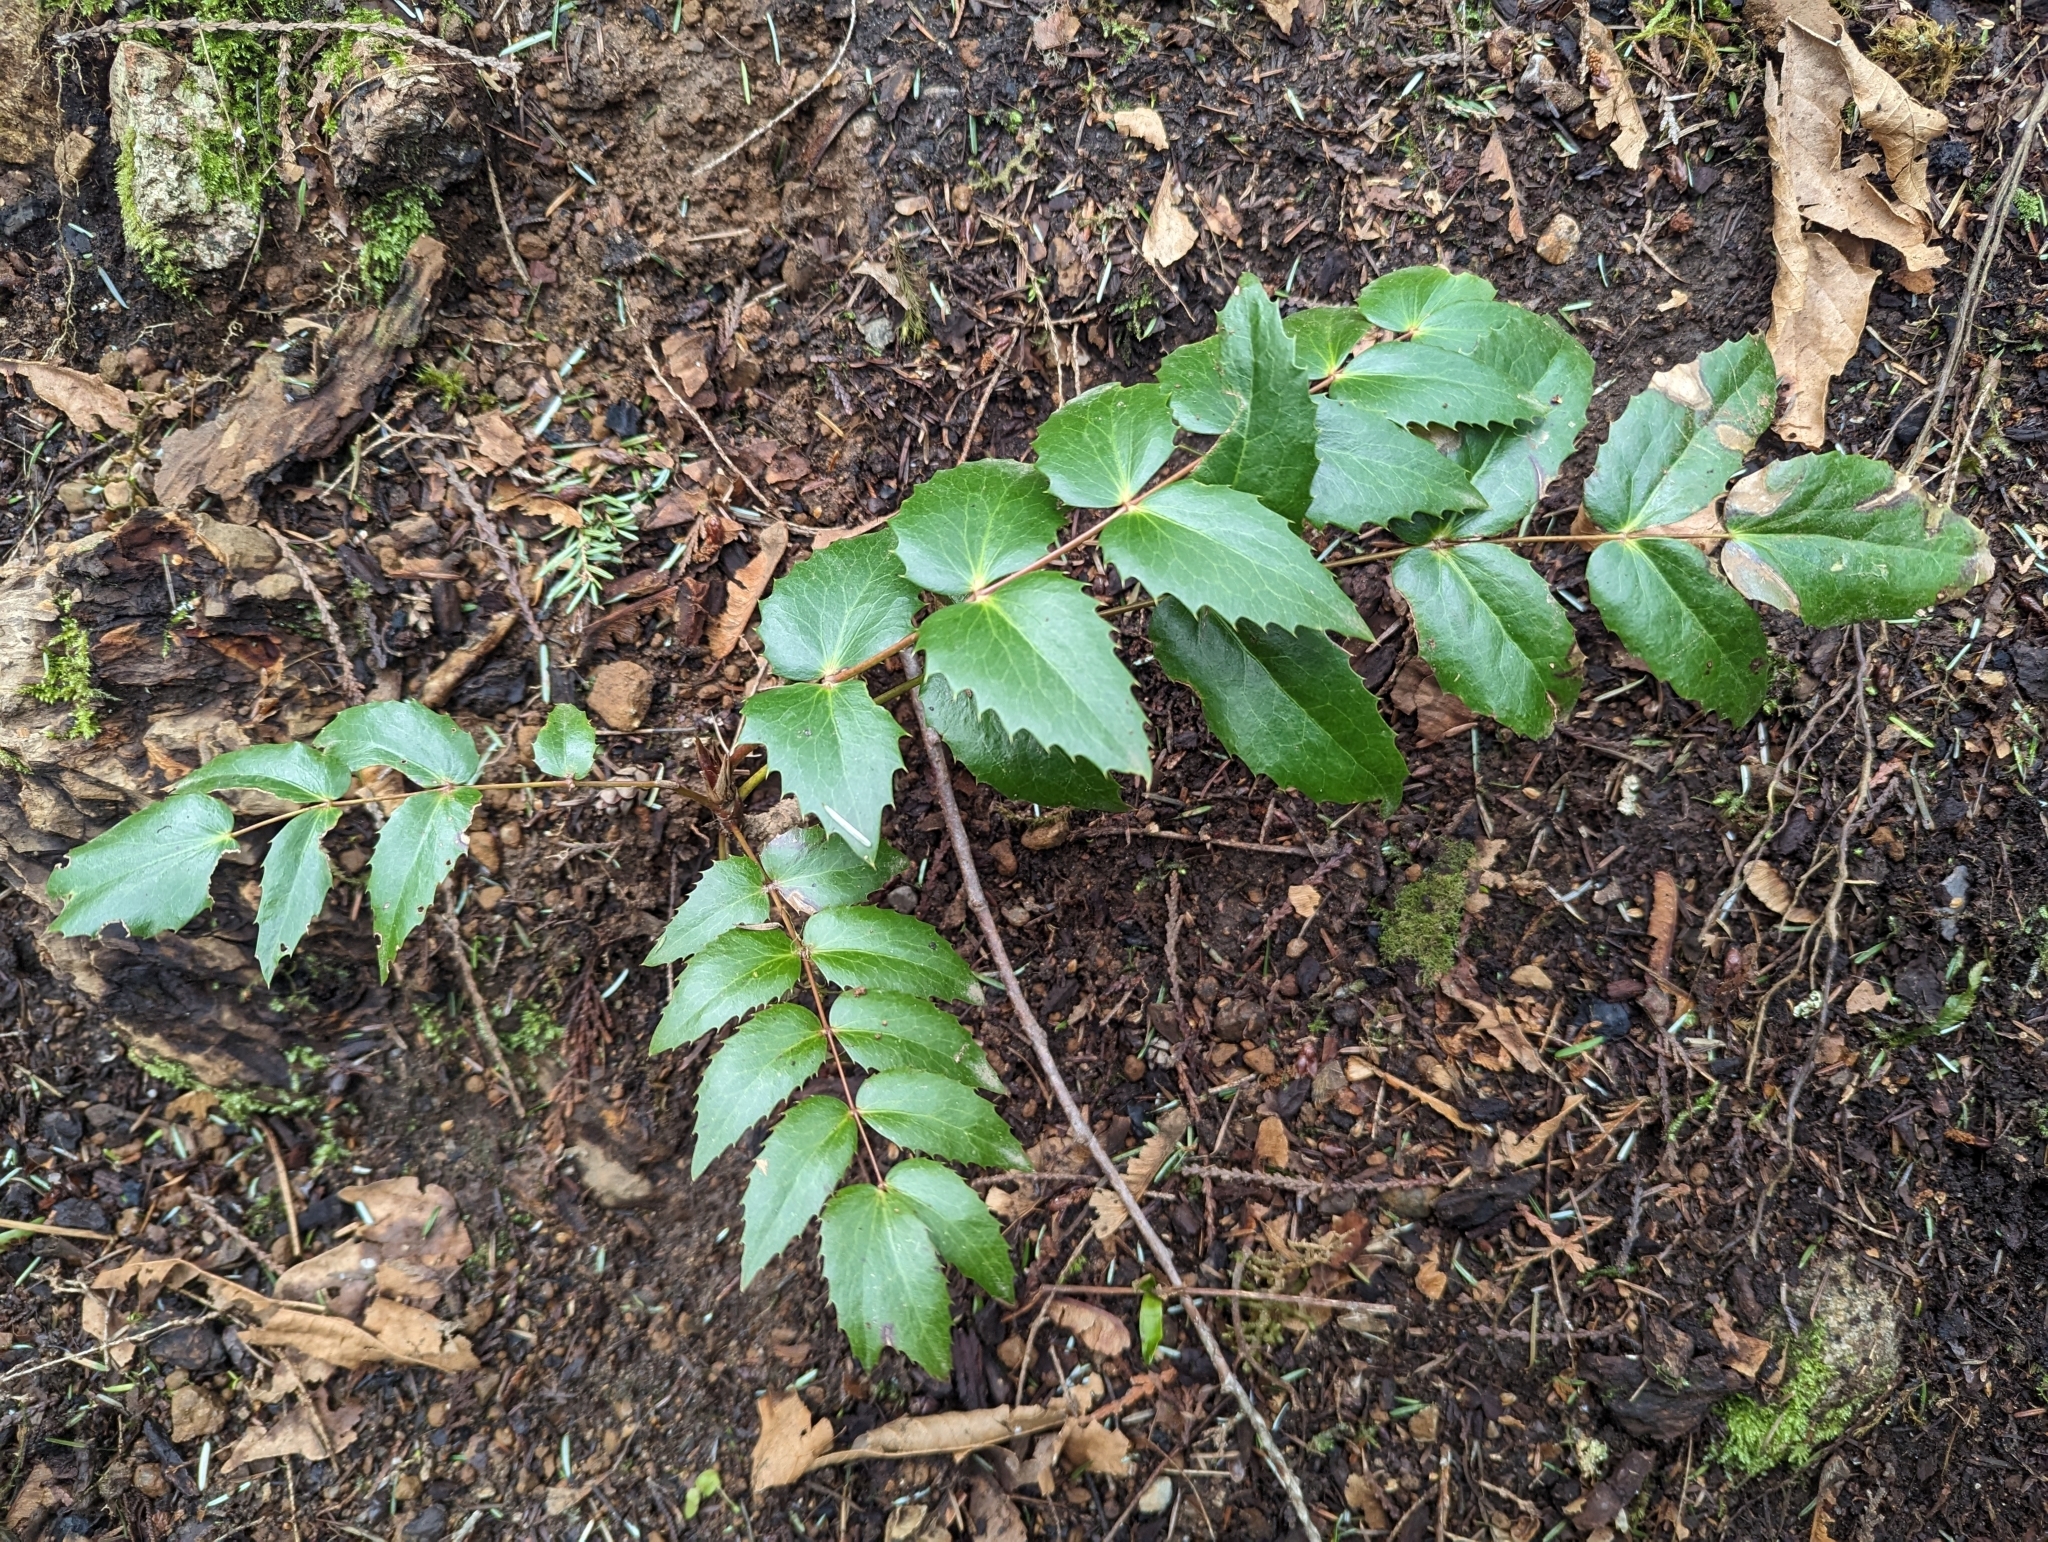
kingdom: Plantae
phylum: Tracheophyta
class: Magnoliopsida
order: Ranunculales
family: Berberidaceae
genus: Mahonia
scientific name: Mahonia nervosa
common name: Cascade oregon-grape
